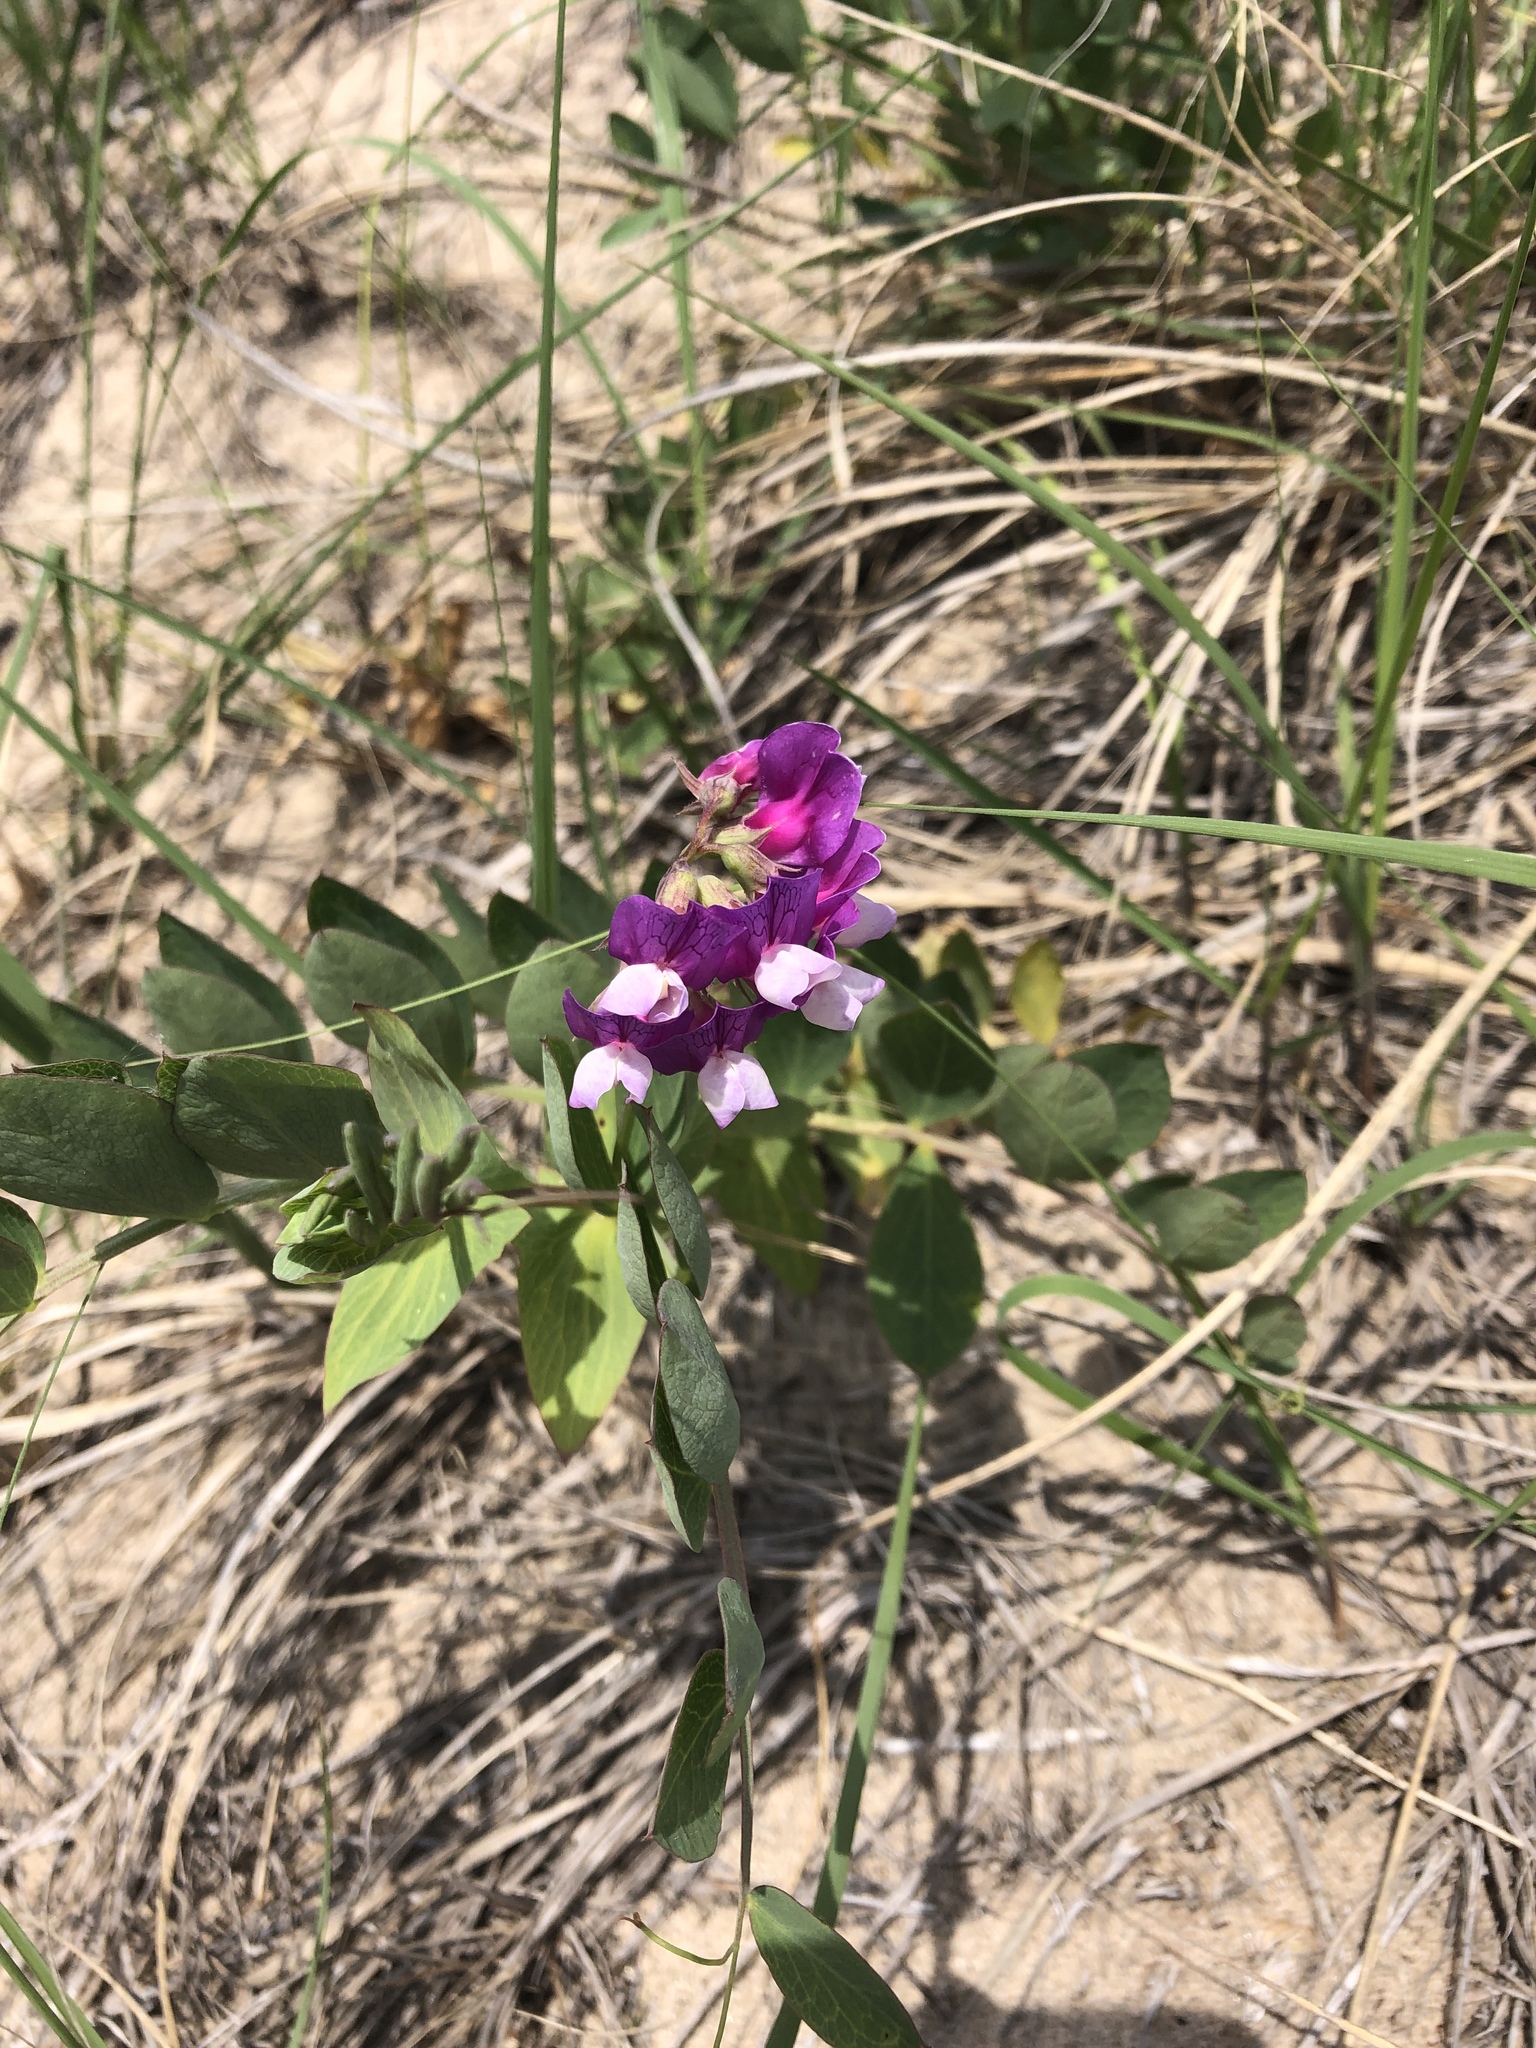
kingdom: Plantae
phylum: Tracheophyta
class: Magnoliopsida
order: Fabales
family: Fabaceae
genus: Lathyrus
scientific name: Lathyrus japonicus
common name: Sea pea
